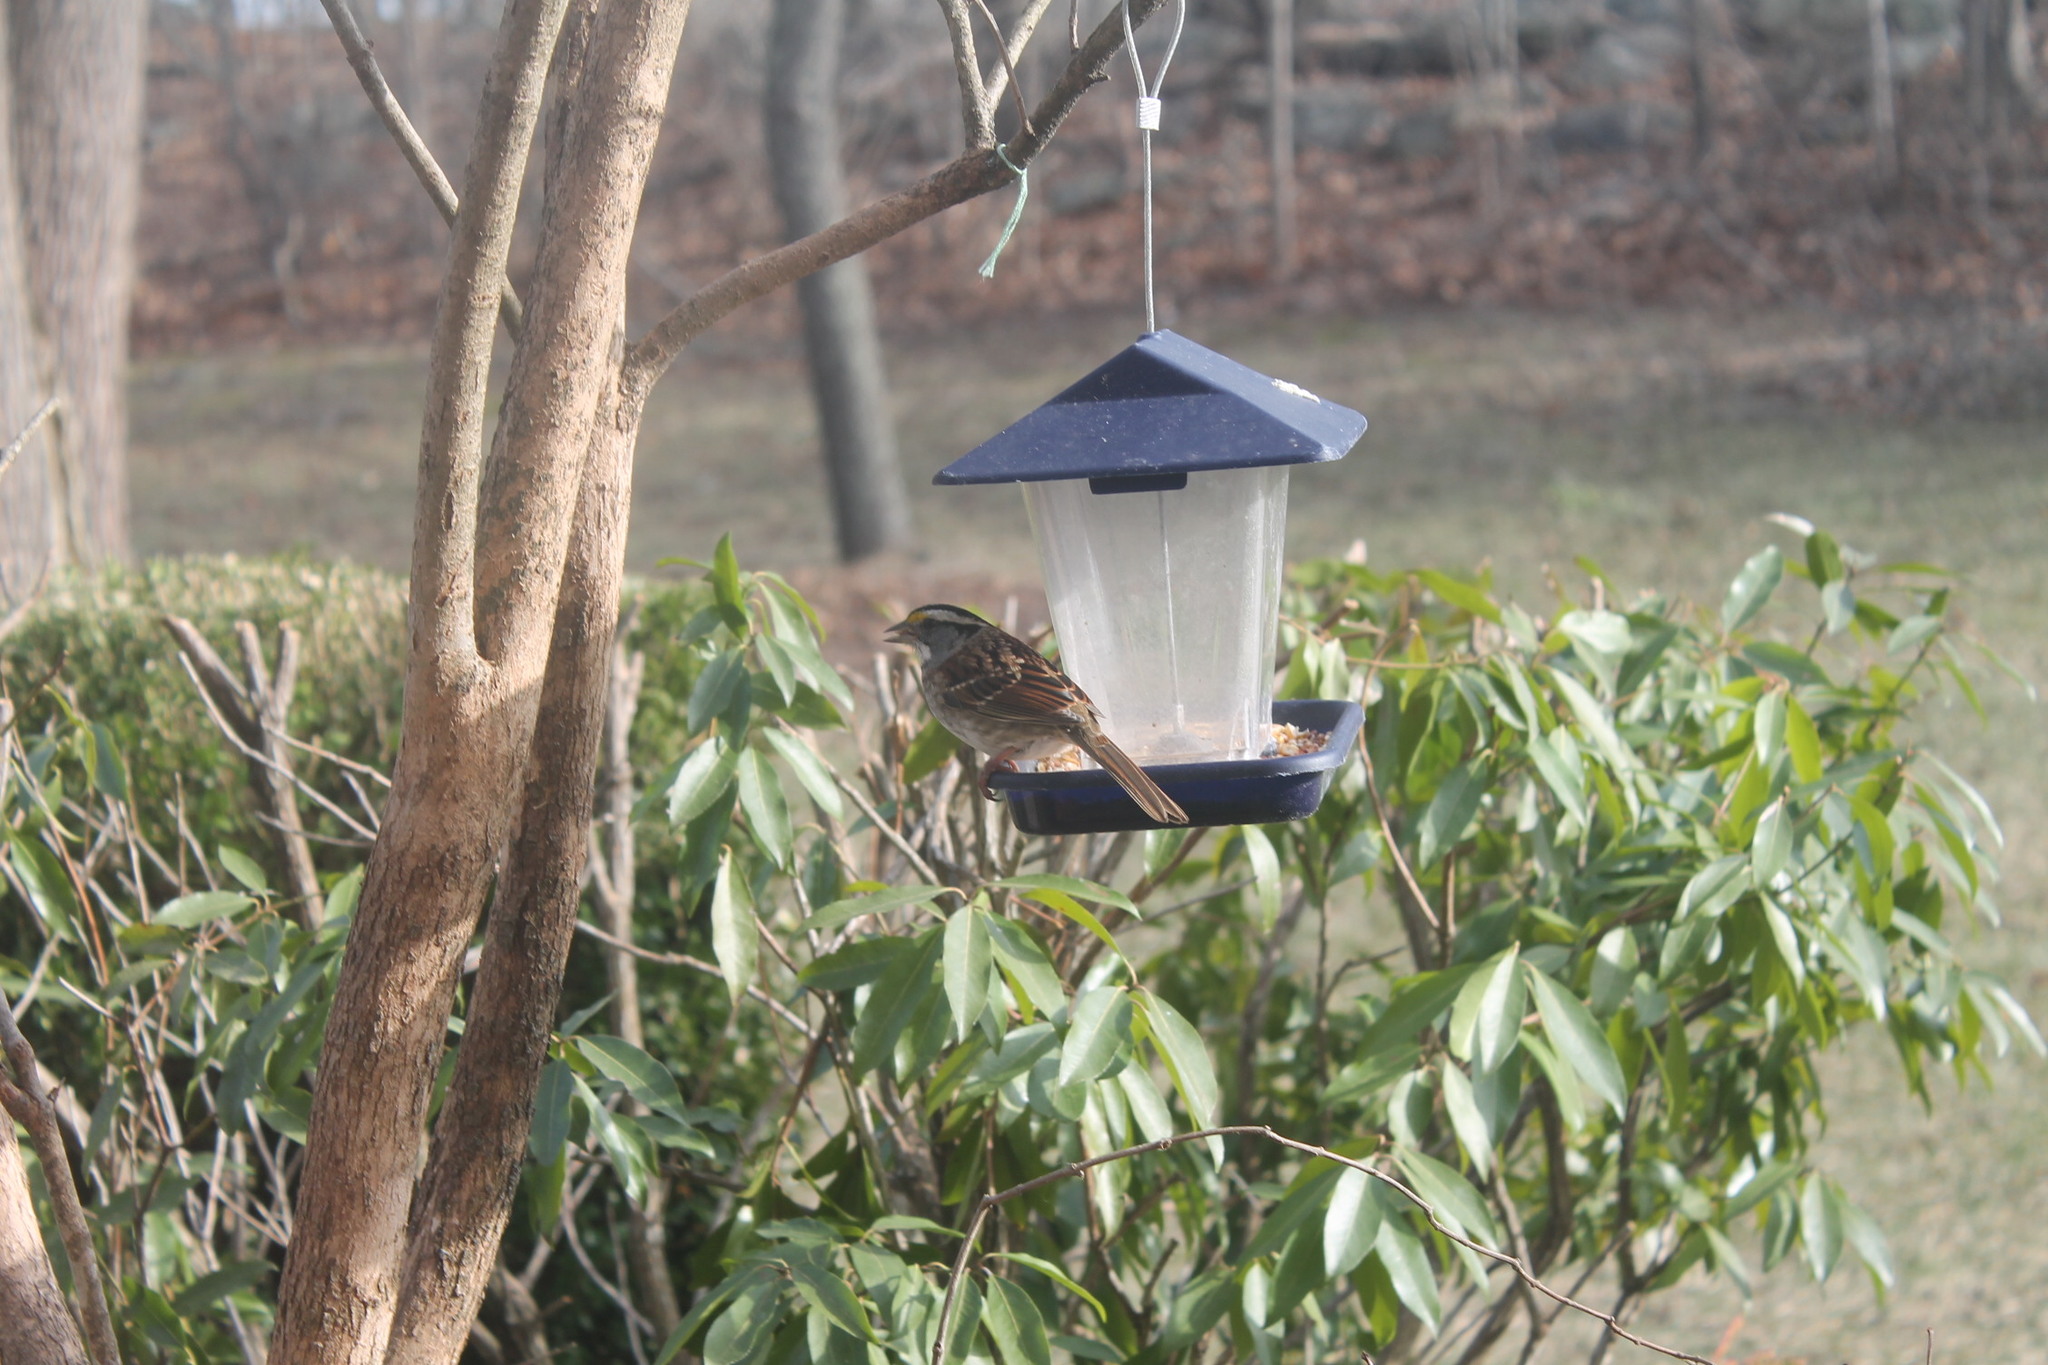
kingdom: Animalia
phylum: Chordata
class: Aves
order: Passeriformes
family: Passerellidae
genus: Zonotrichia
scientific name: Zonotrichia albicollis
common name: White-throated sparrow
